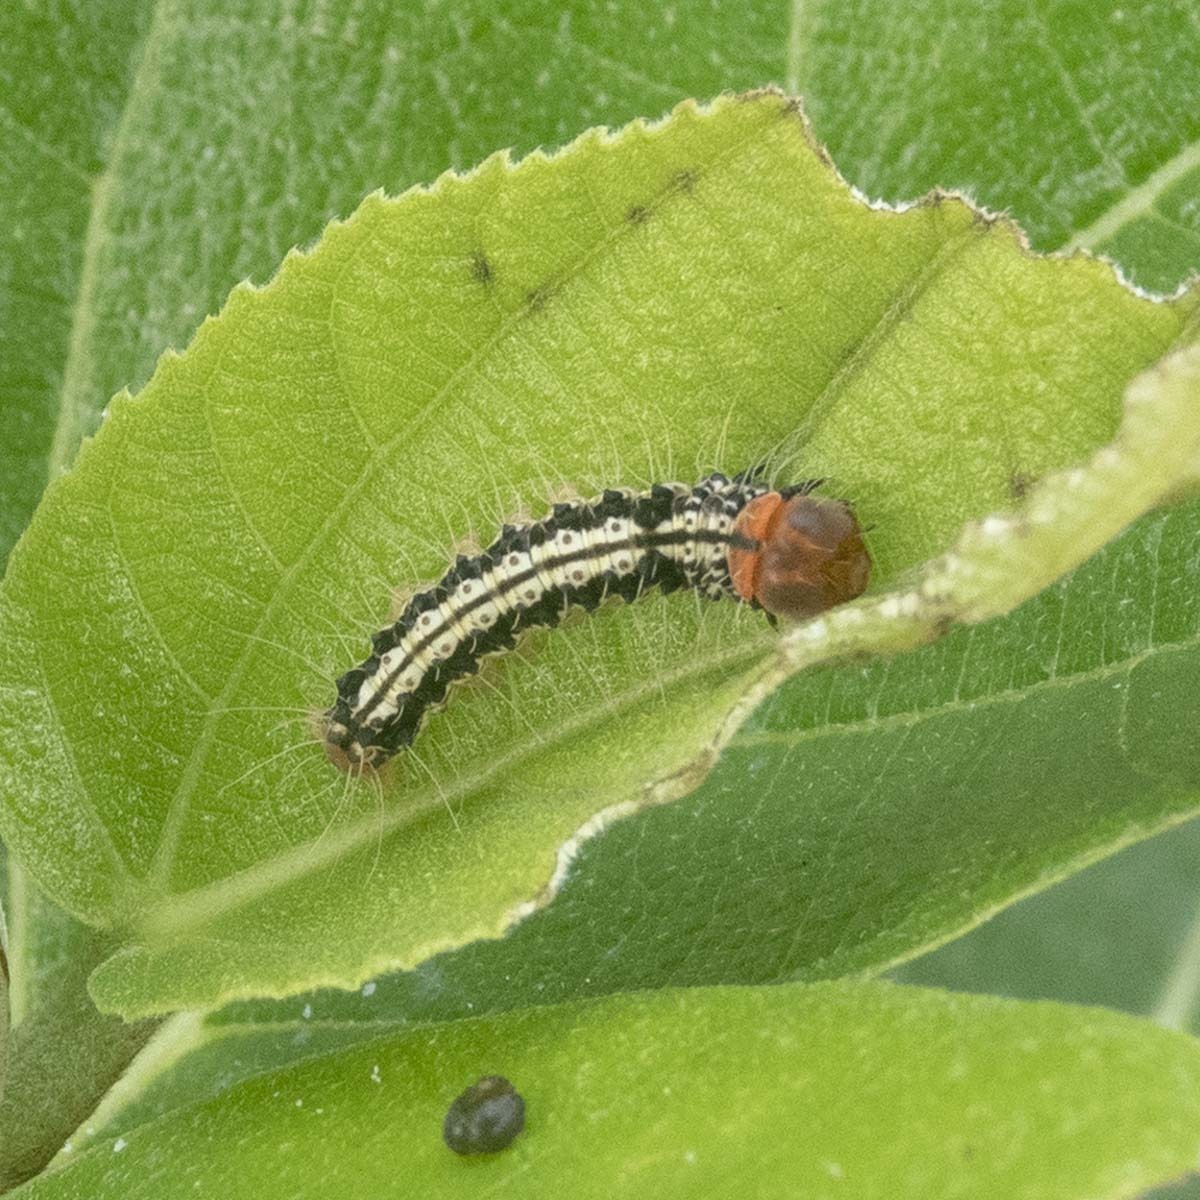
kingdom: Animalia
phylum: Arthropoda
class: Insecta
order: Lepidoptera
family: Erebidae
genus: Asota
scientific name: Asota caricae
